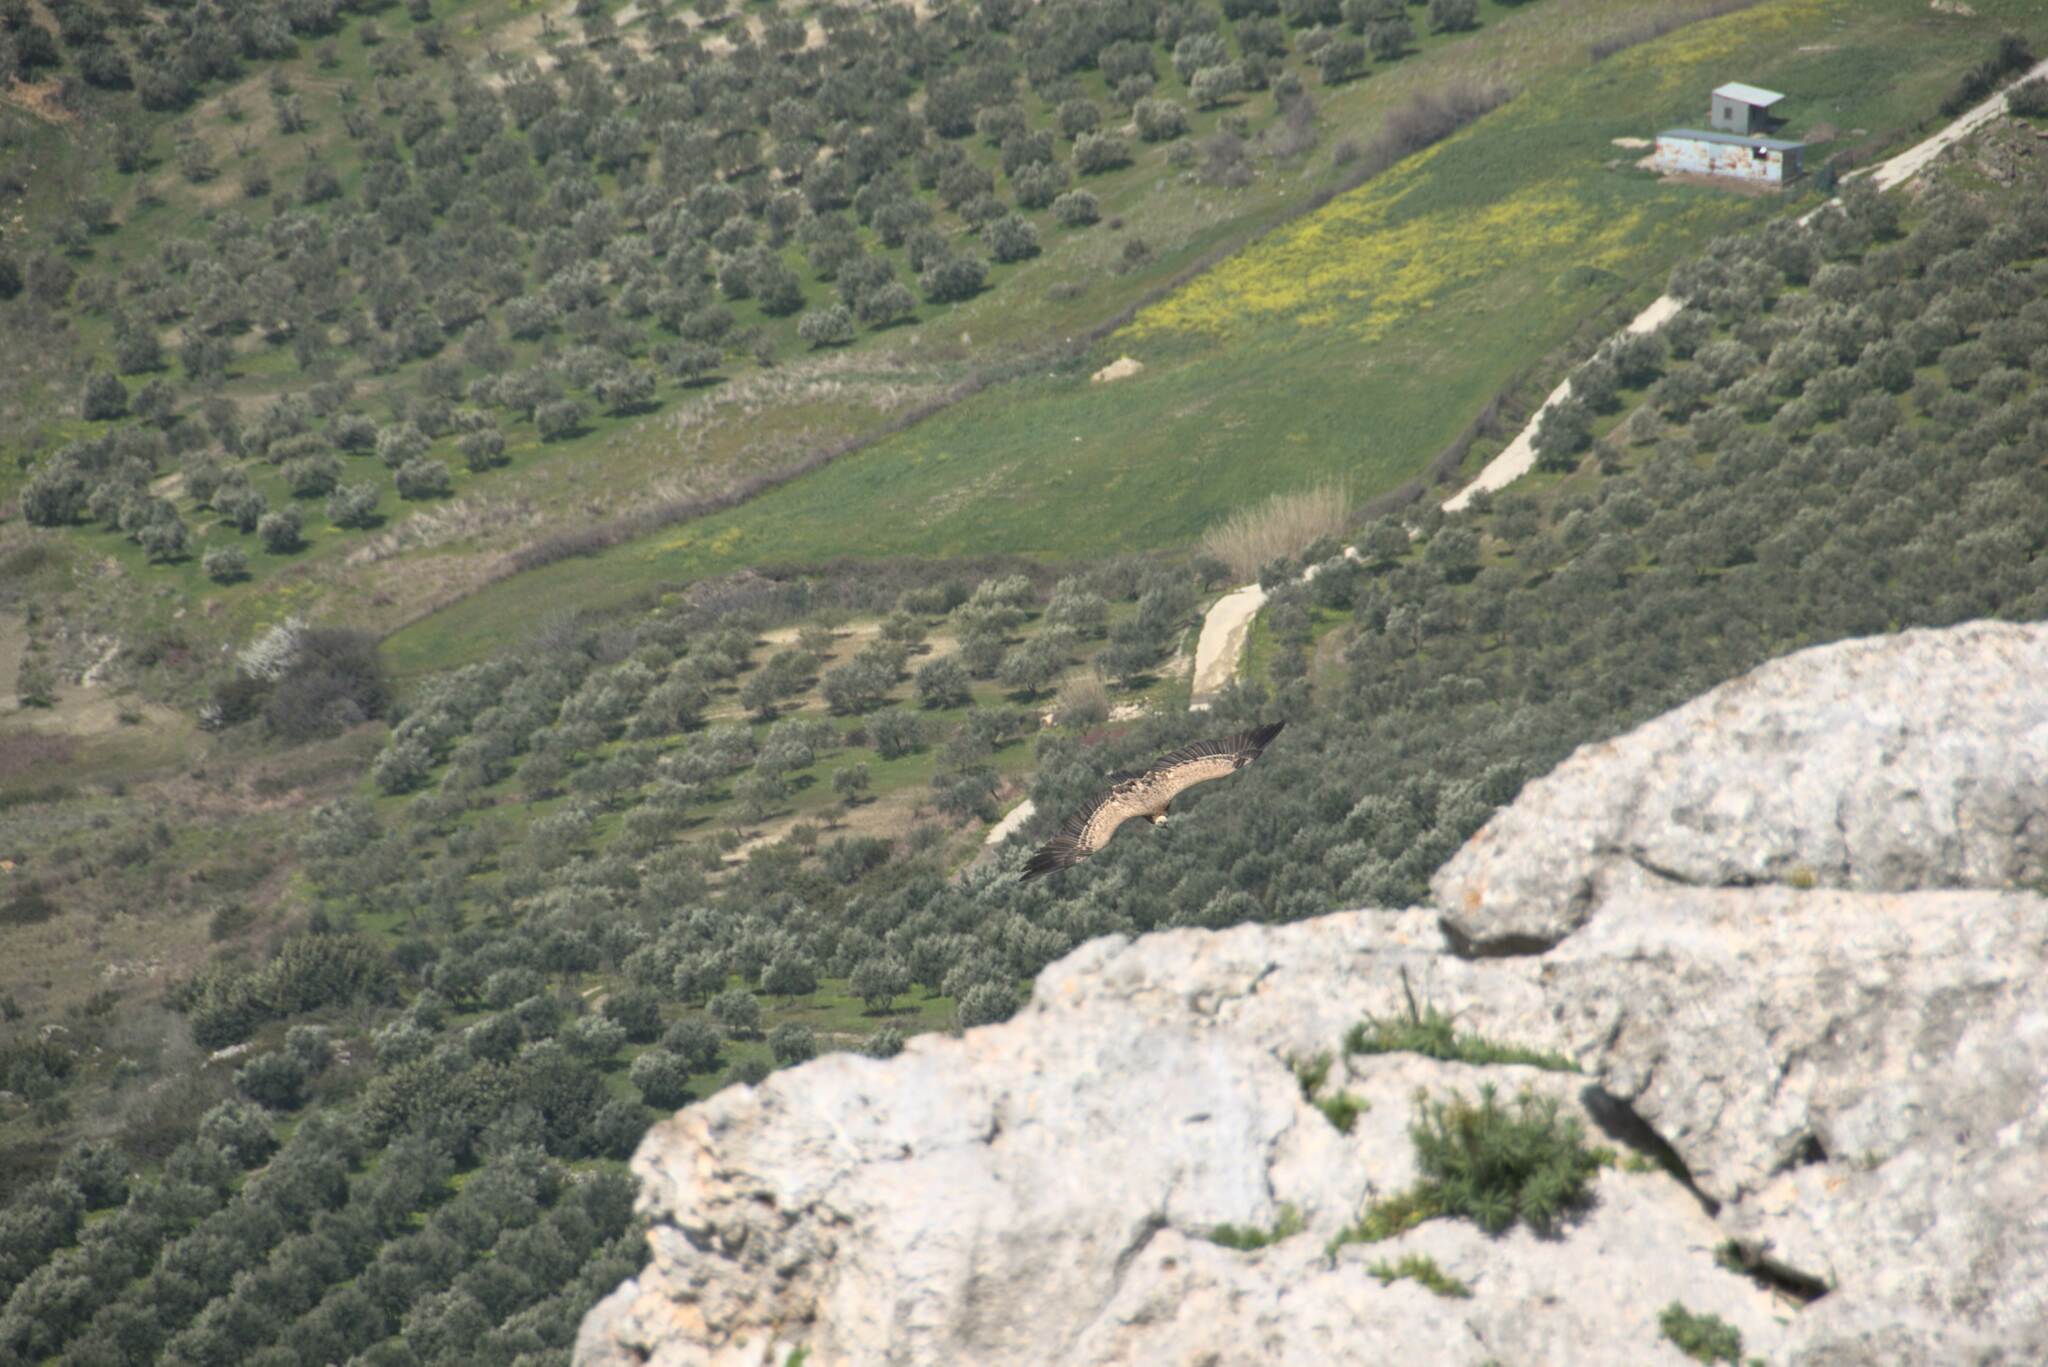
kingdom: Animalia
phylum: Chordata
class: Aves
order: Accipitriformes
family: Accipitridae
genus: Gyps
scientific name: Gyps fulvus
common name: Griffon vulture
